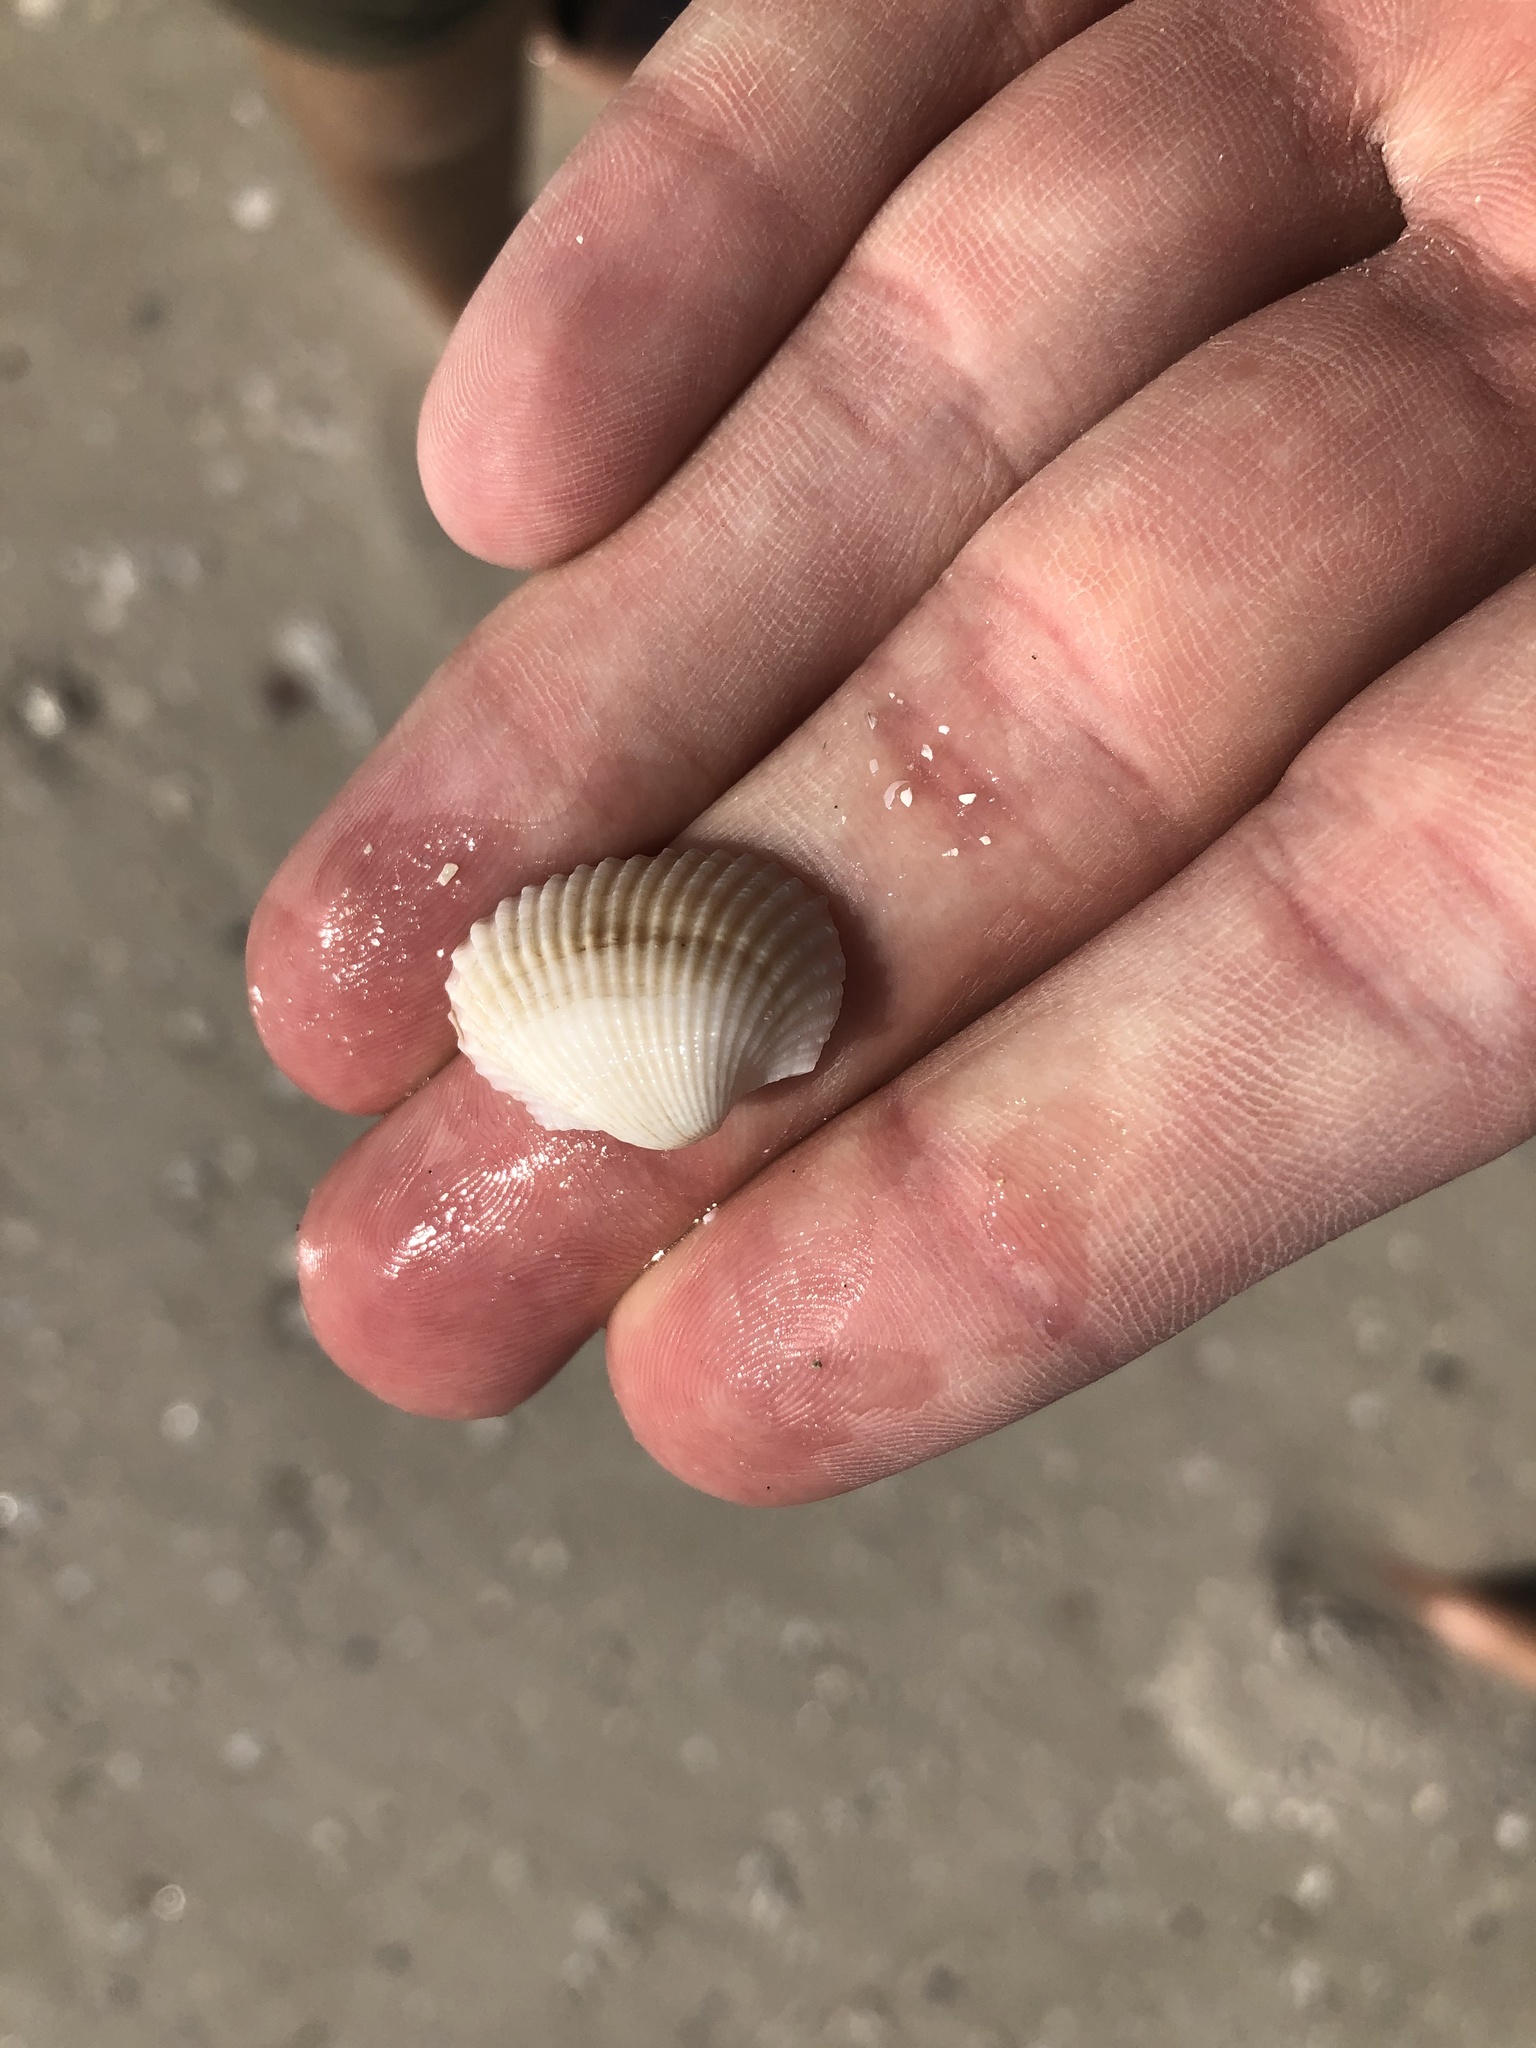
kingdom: Animalia
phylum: Mollusca
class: Bivalvia
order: Arcida
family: Arcidae
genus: Anadara
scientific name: Anadara transversa
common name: Transverse ark
